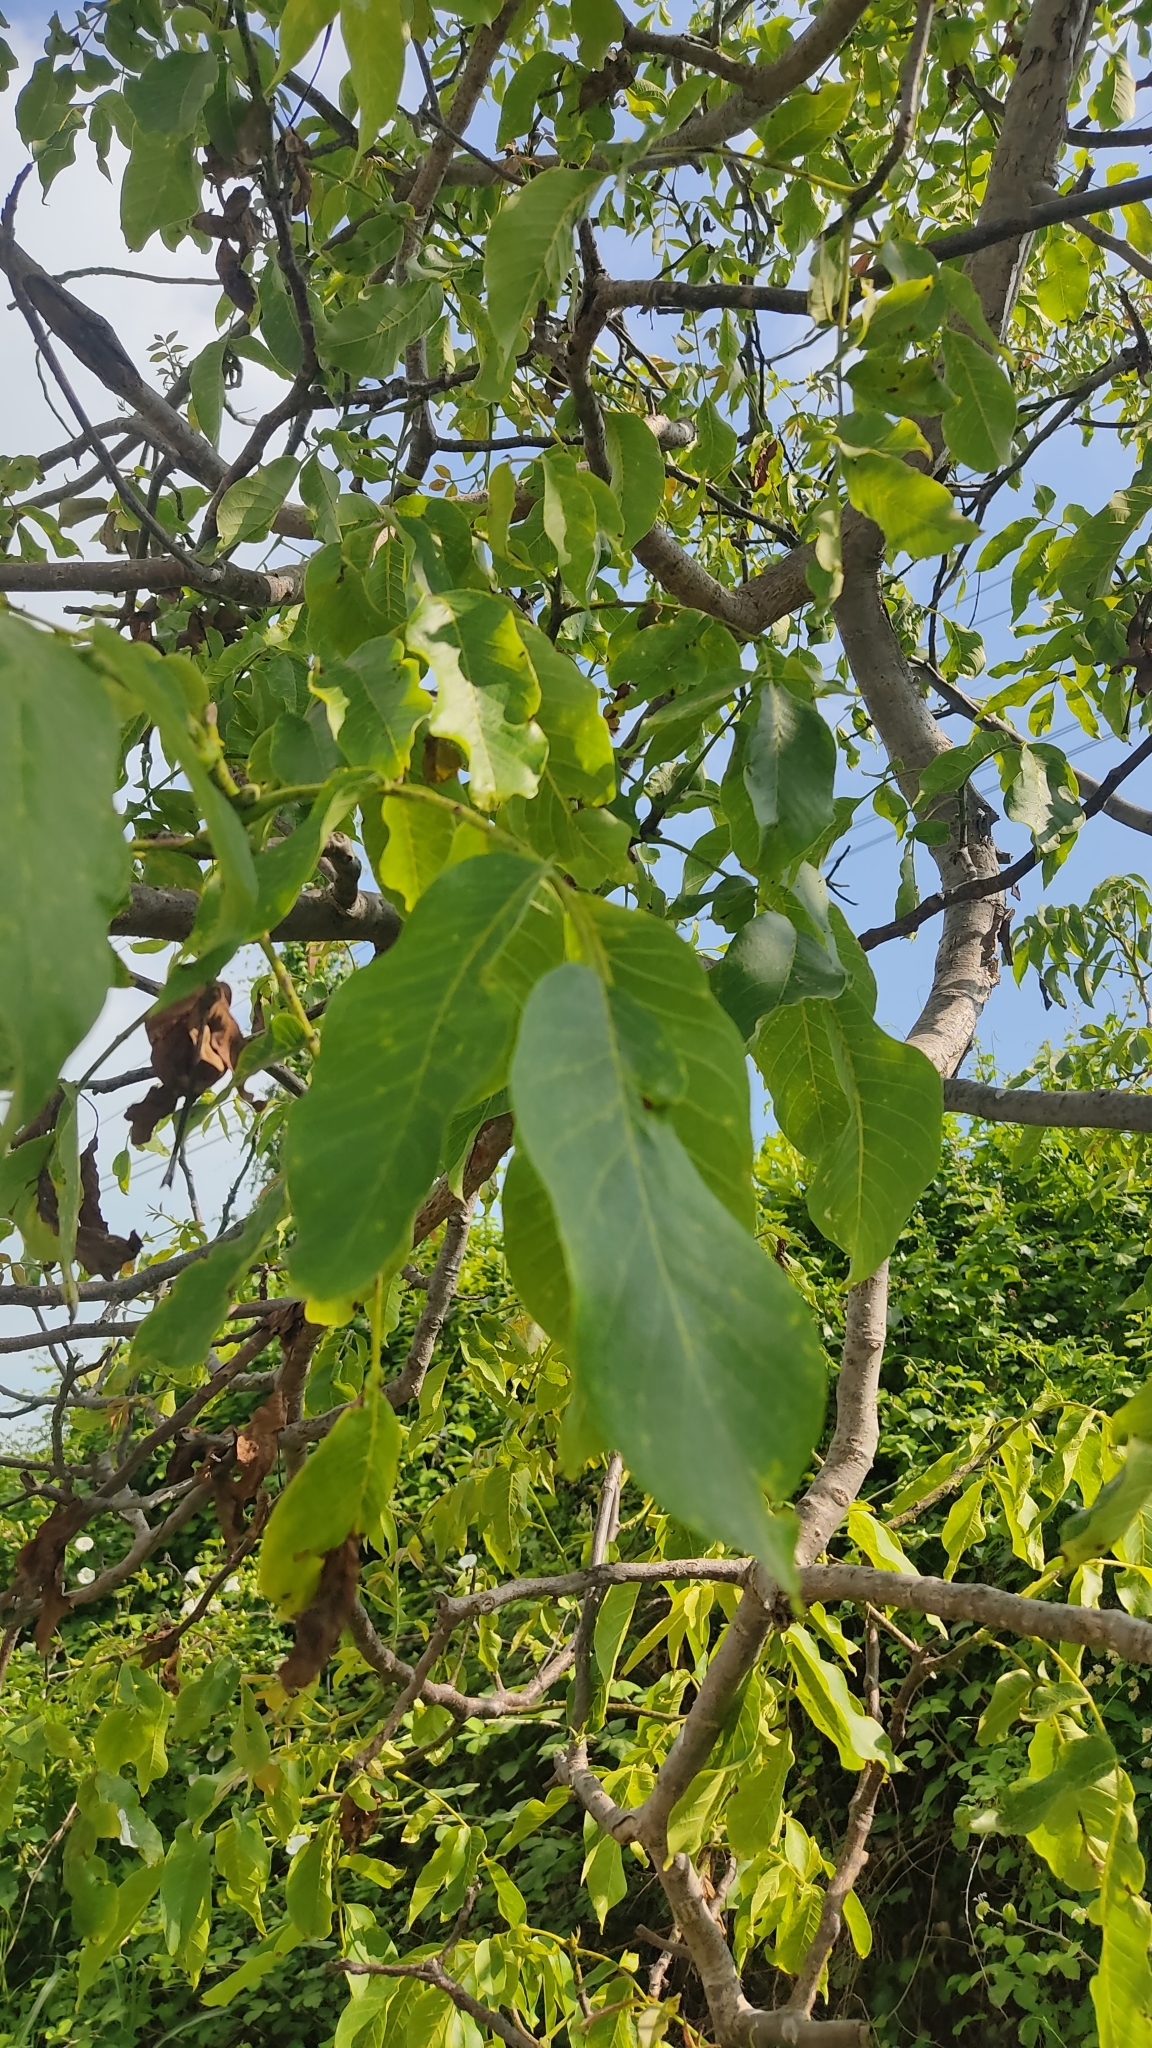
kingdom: Plantae
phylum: Tracheophyta
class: Magnoliopsida
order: Fagales
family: Juglandaceae
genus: Juglans
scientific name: Juglans regia
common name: Walnut
